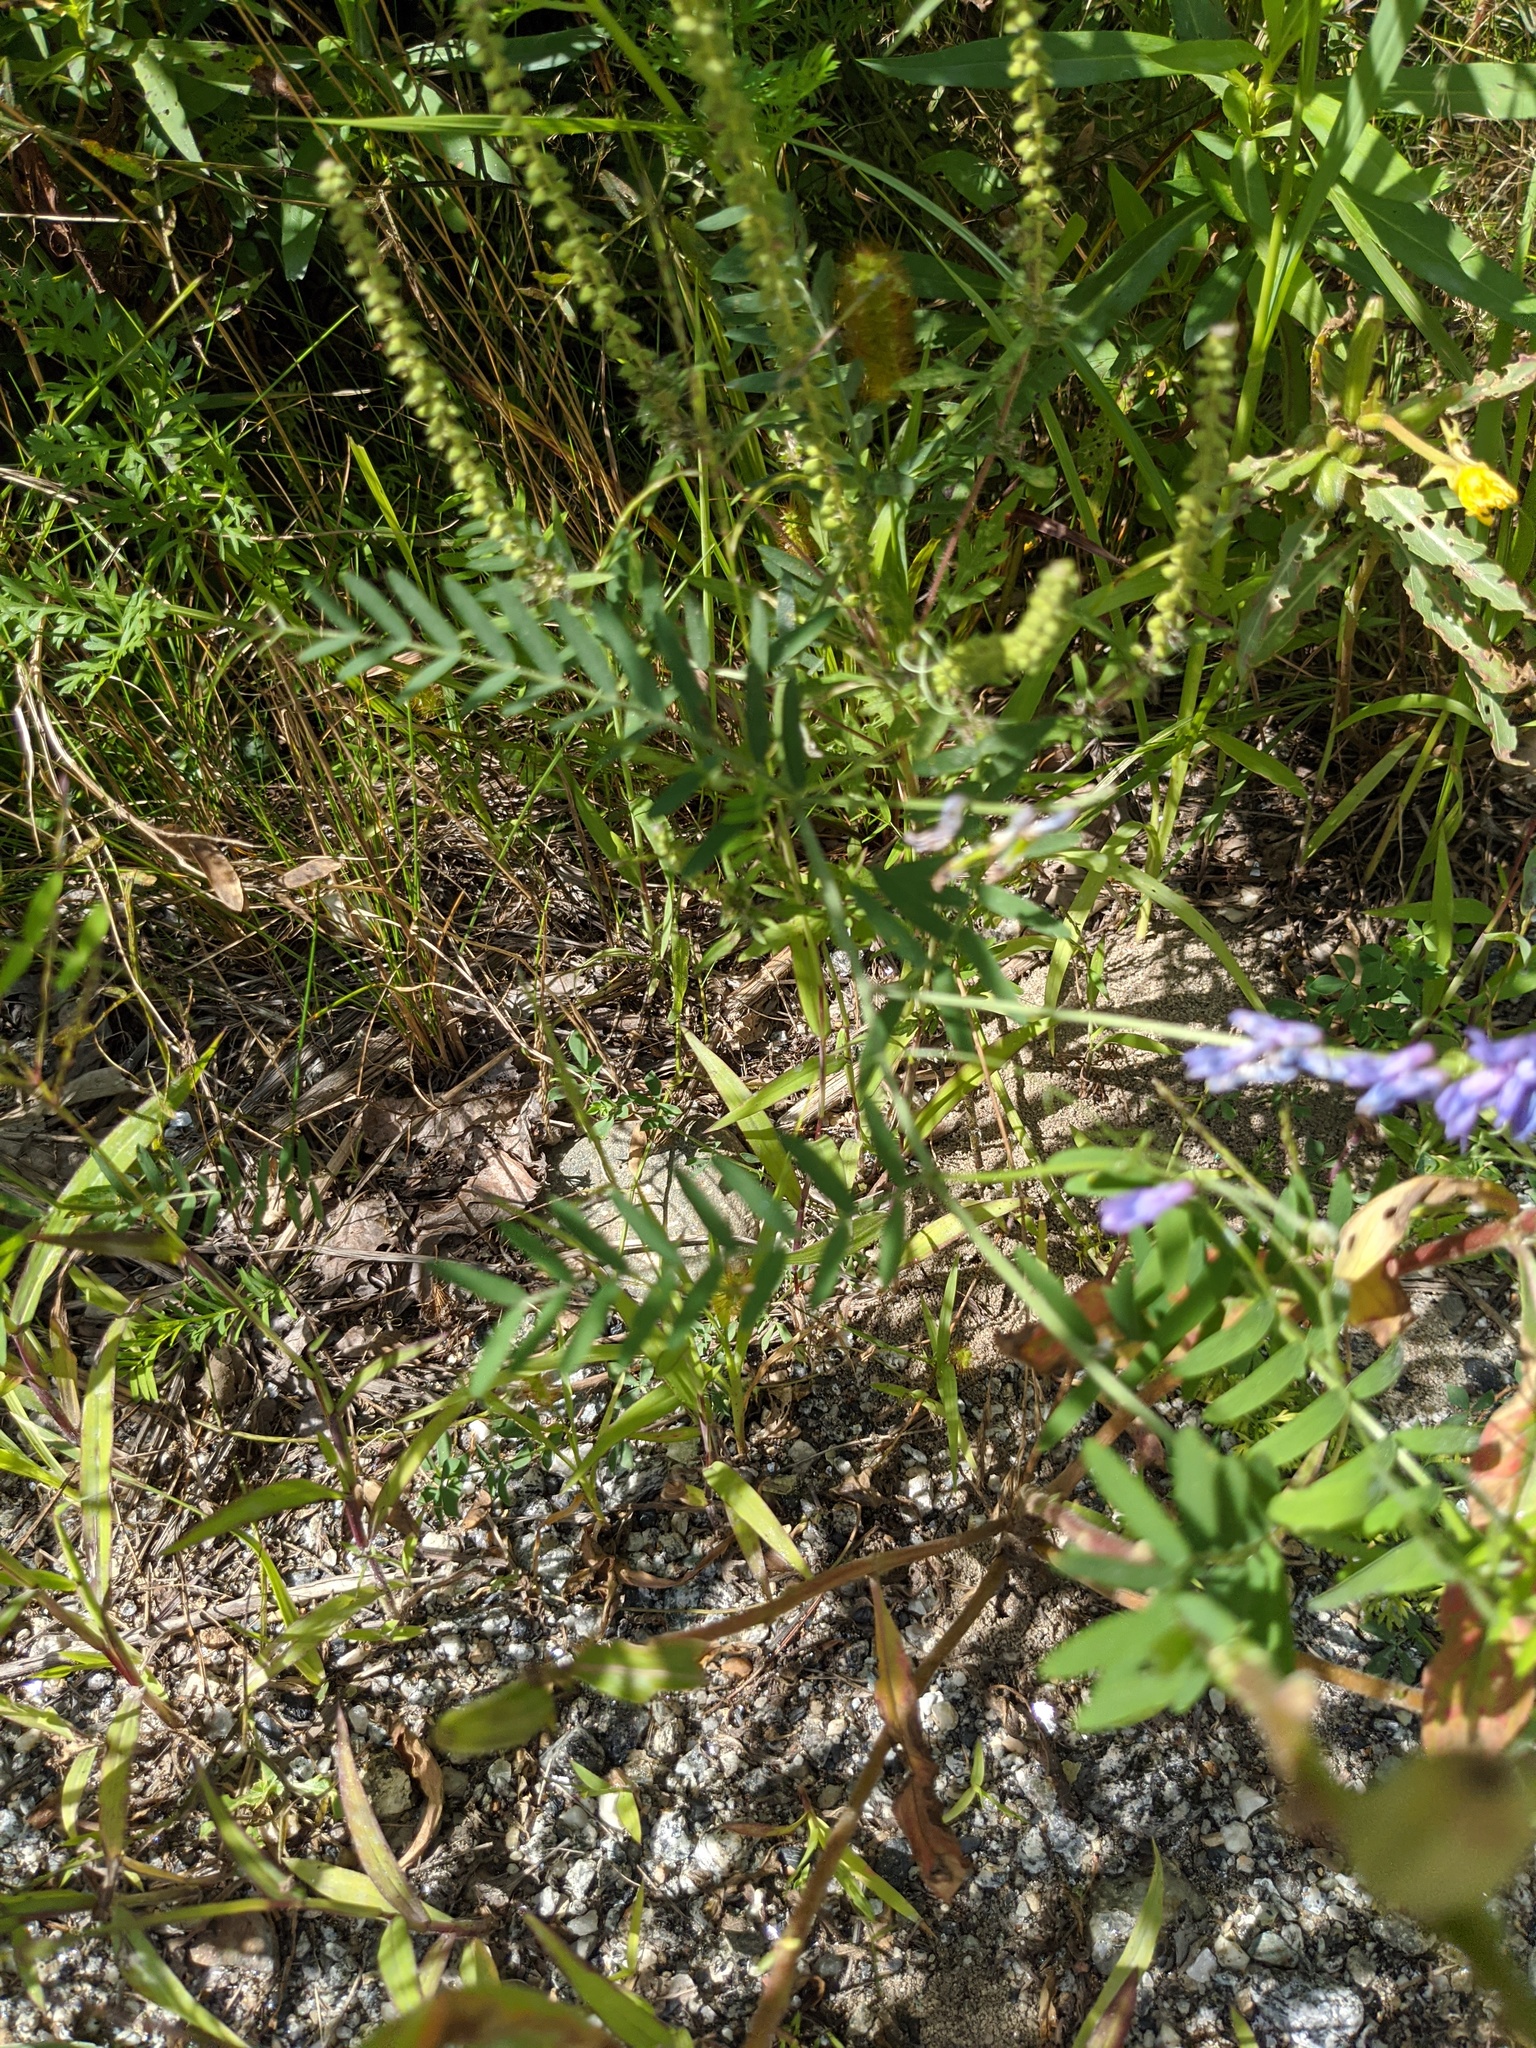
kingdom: Plantae
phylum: Tracheophyta
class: Magnoliopsida
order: Fabales
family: Fabaceae
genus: Vicia
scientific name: Vicia cracca
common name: Bird vetch
